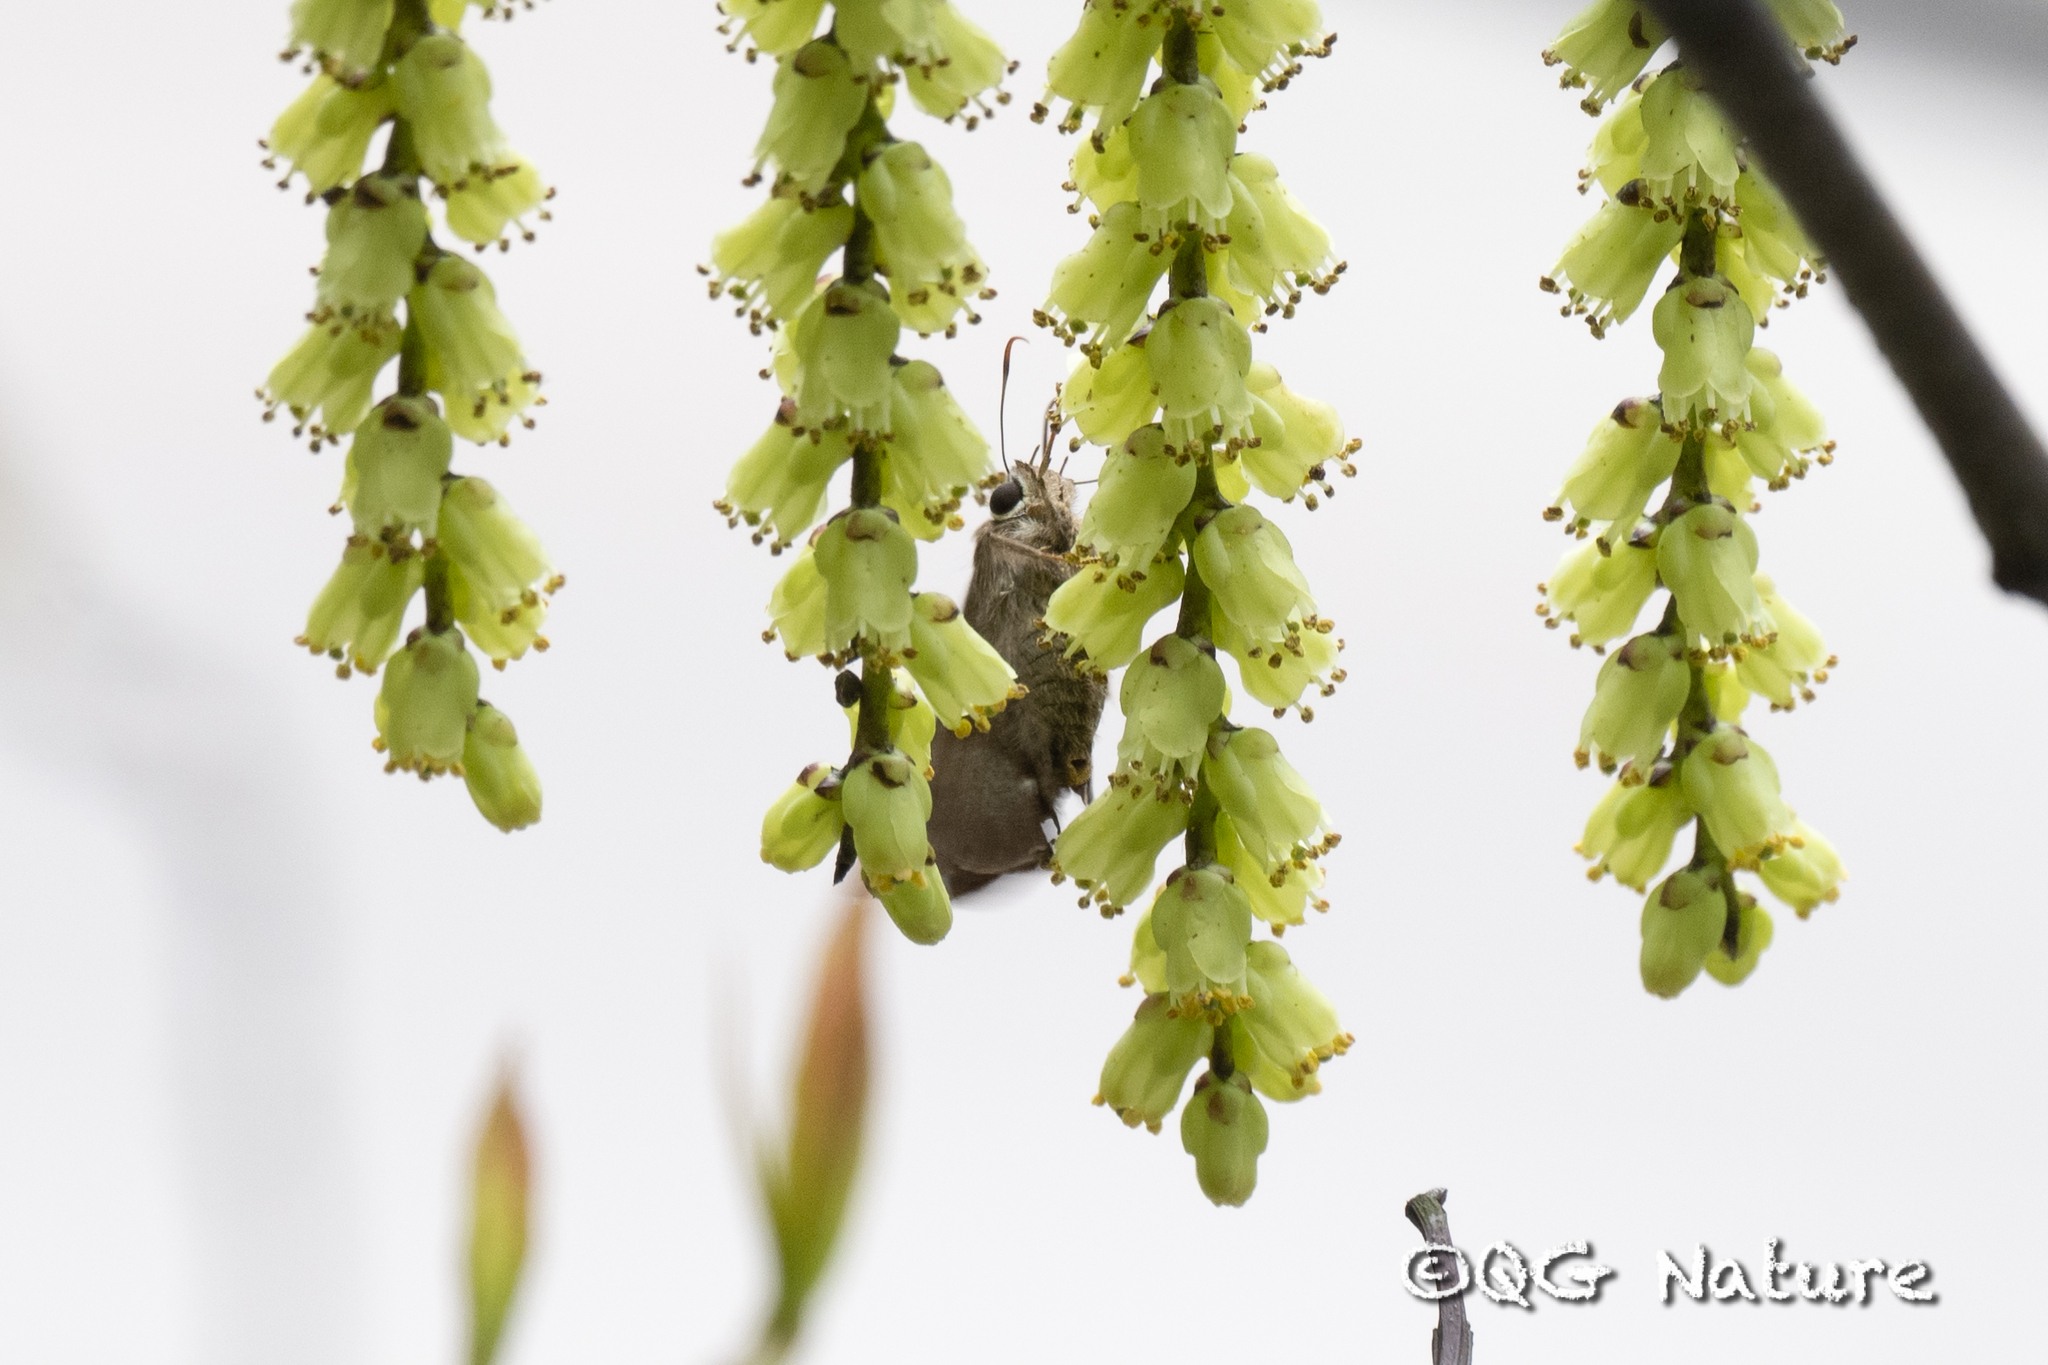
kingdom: Animalia
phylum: Arthropoda
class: Insecta
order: Lepidoptera
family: Hesperiidae
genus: Hasora
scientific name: Hasora anura
